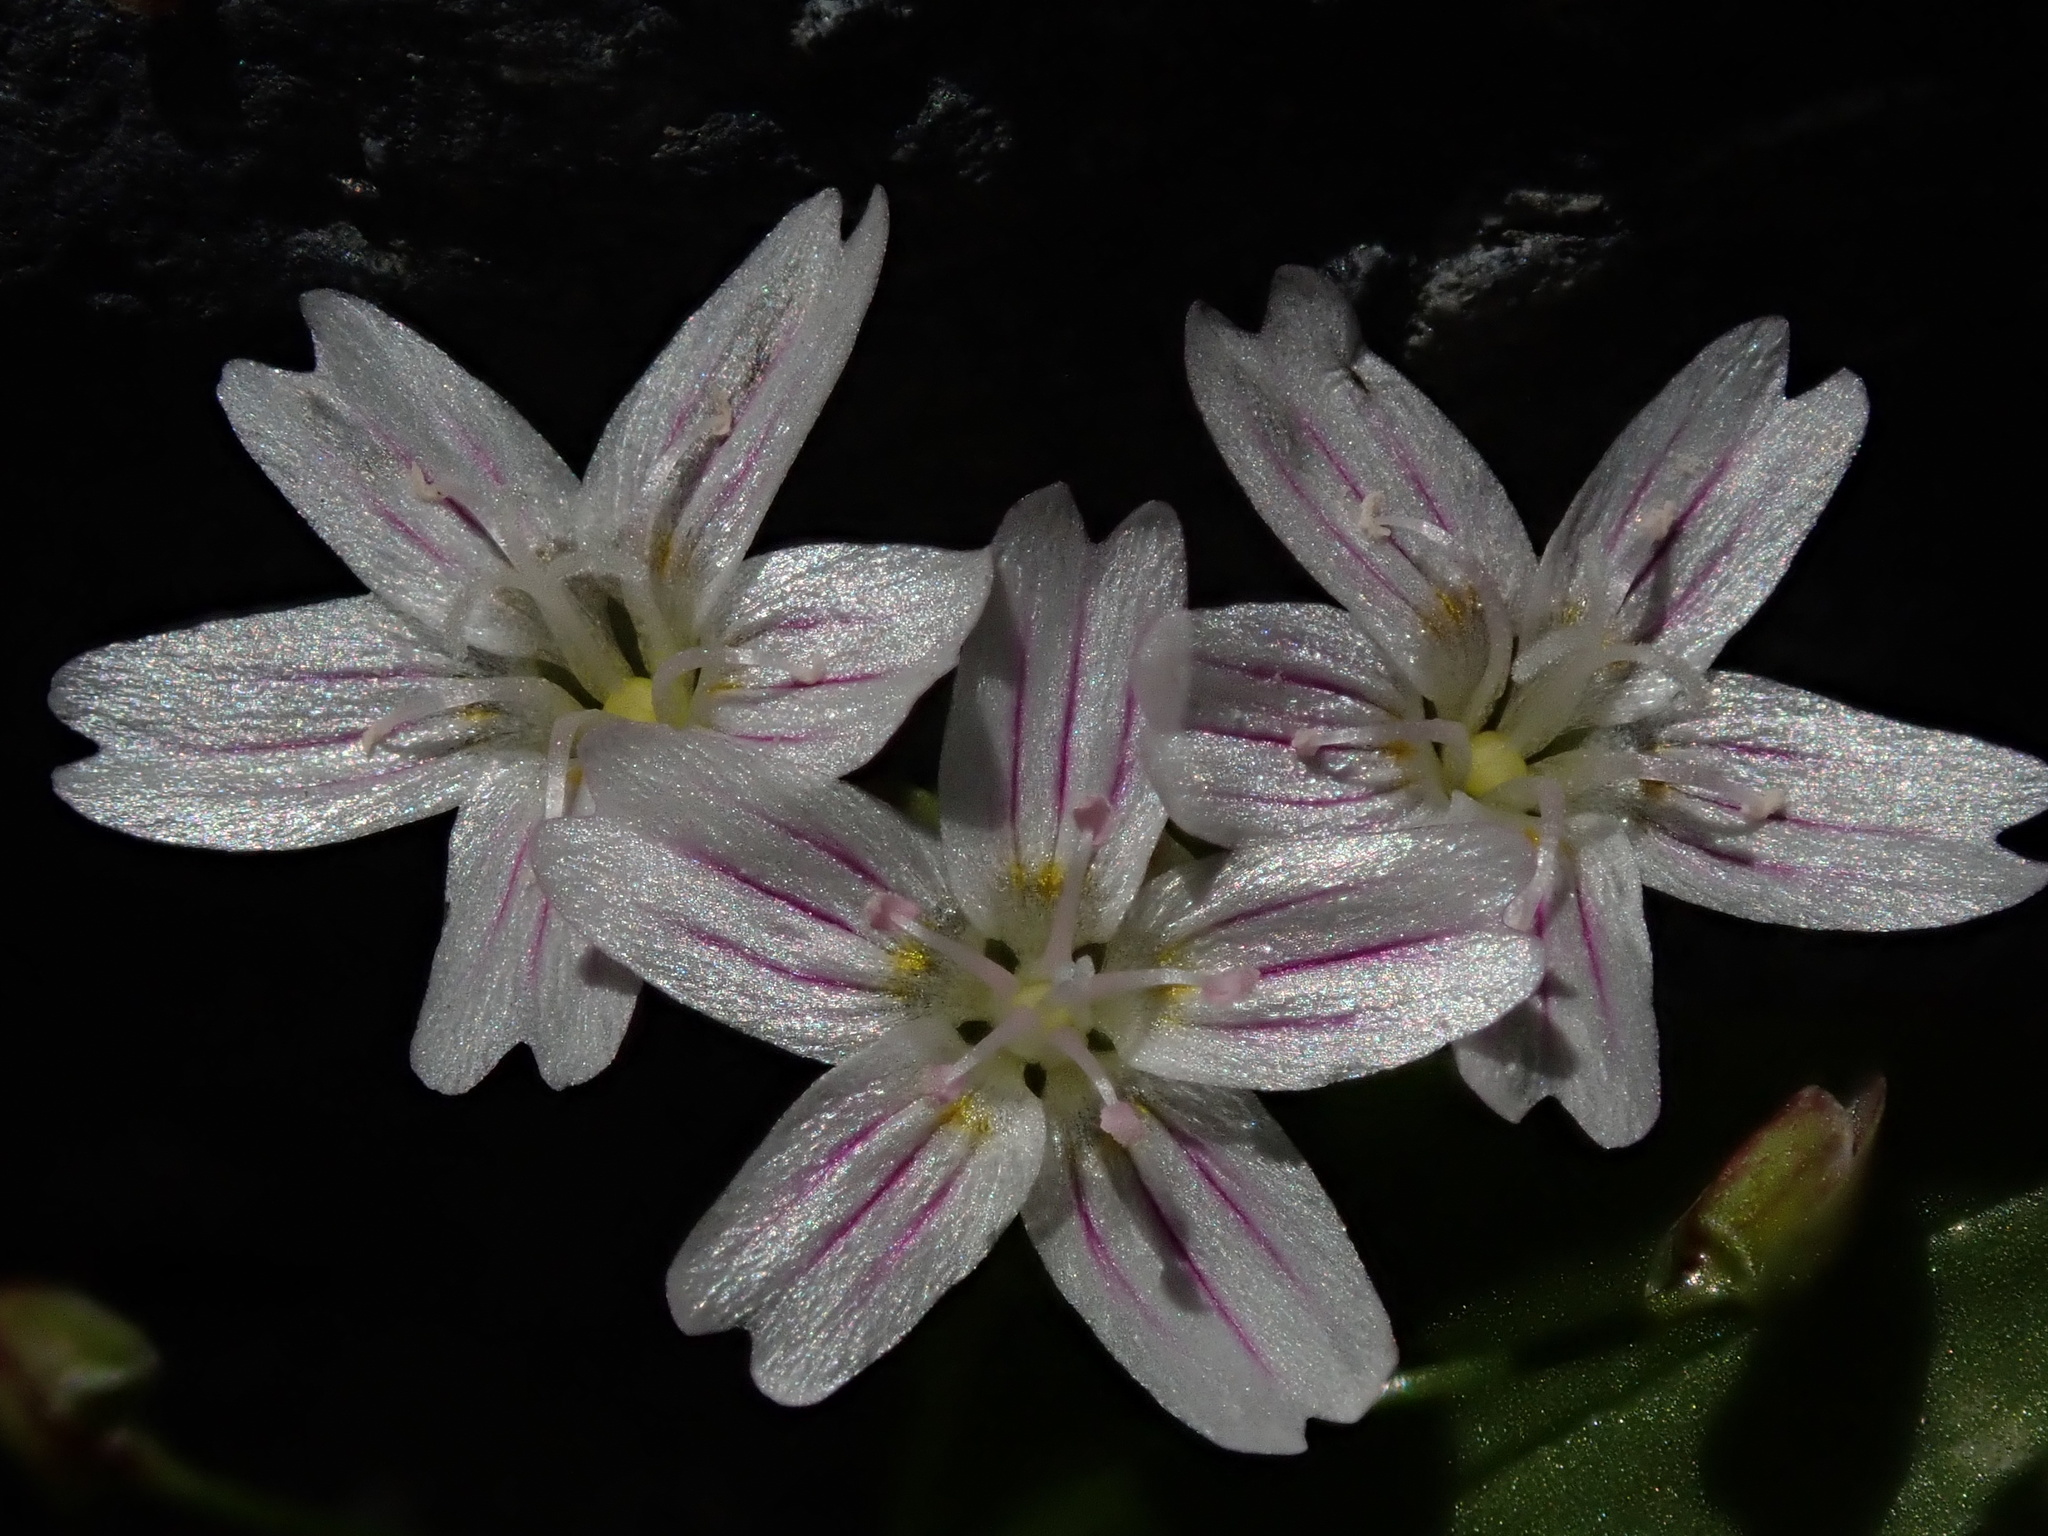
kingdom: Plantae
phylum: Tracheophyta
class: Magnoliopsida
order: Caryophyllales
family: Montiaceae
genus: Claytonia
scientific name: Claytonia sibirica
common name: Pink purslane
